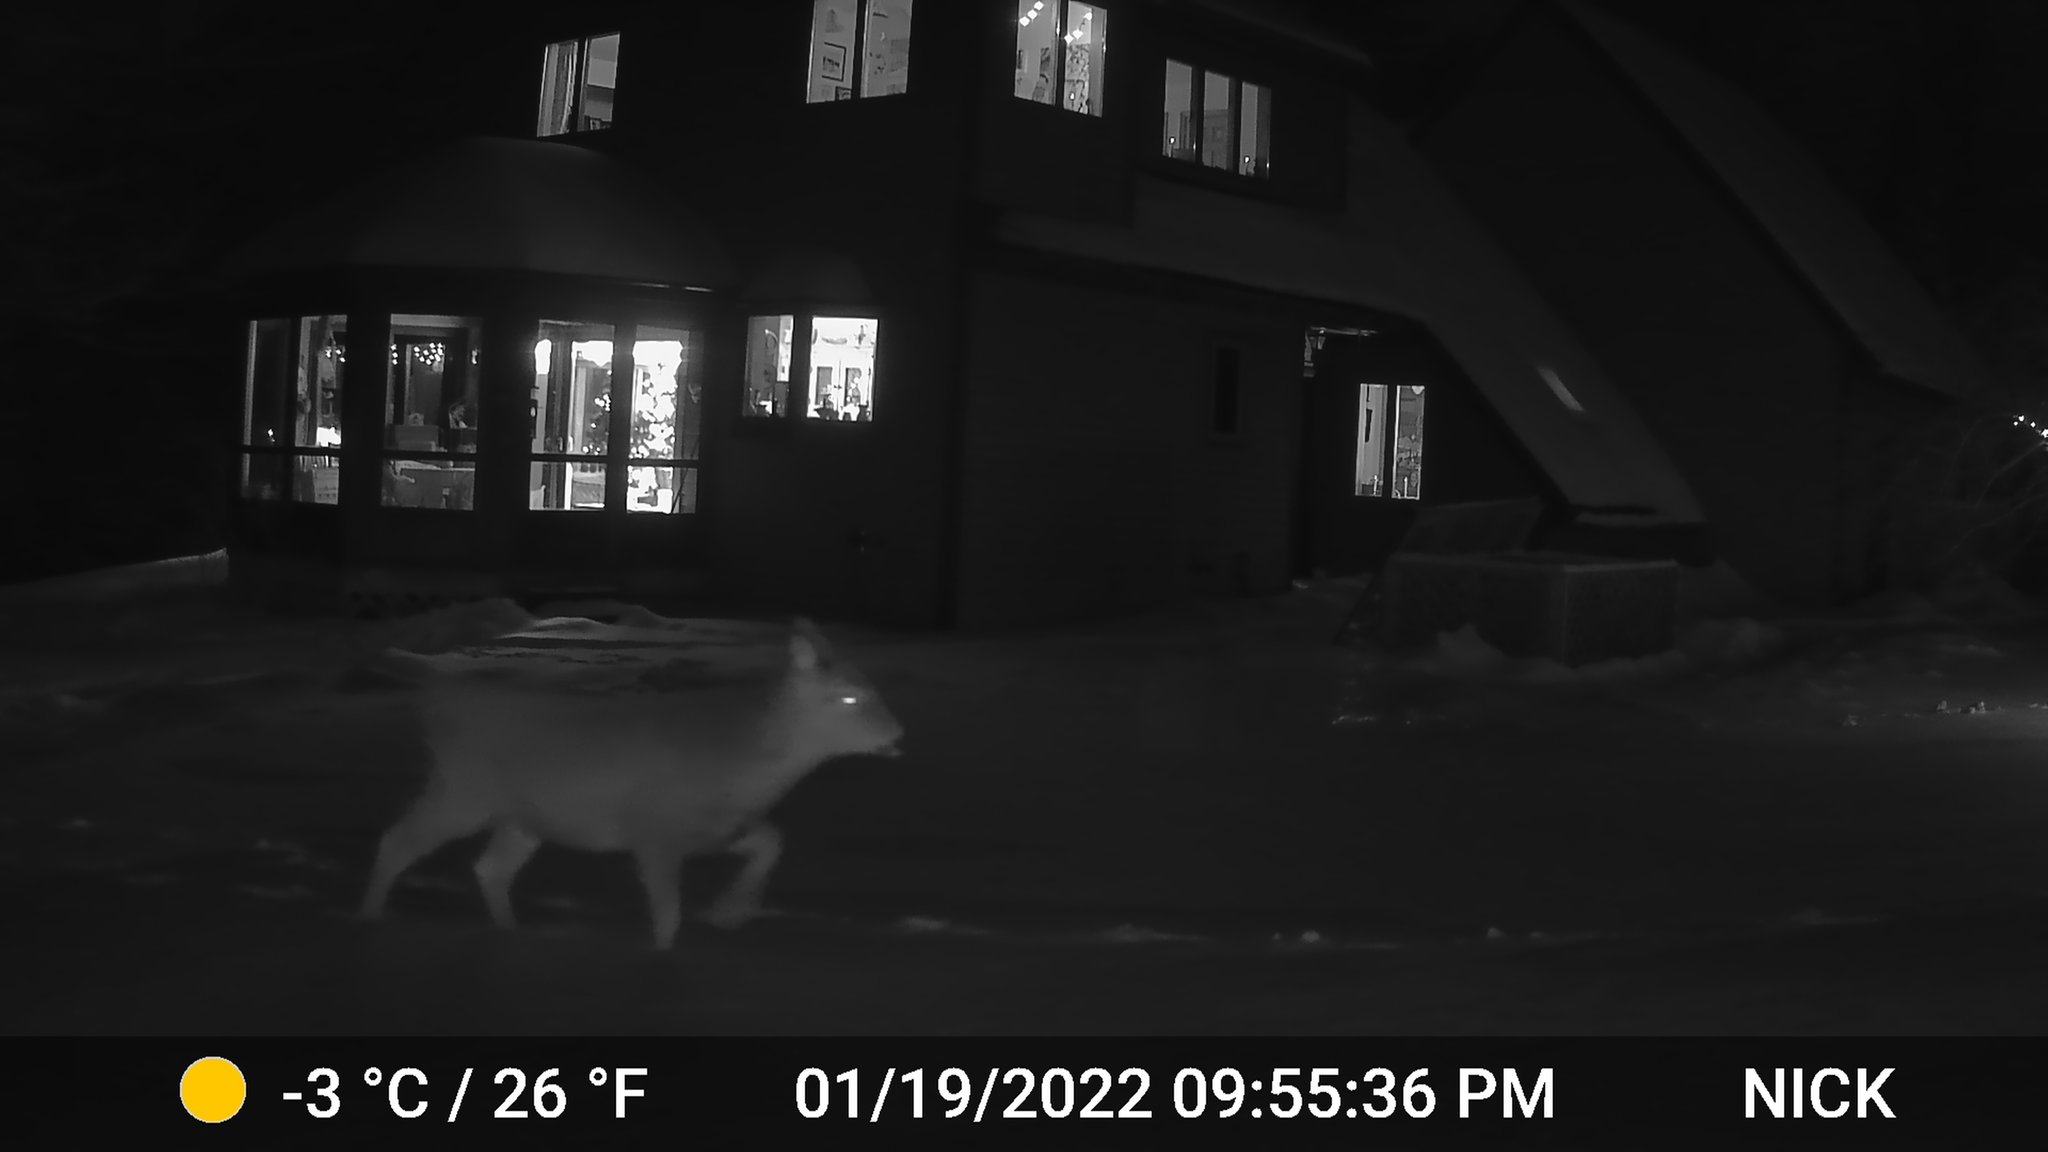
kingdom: Animalia
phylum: Chordata
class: Mammalia
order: Artiodactyla
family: Cervidae
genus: Odocoileus
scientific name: Odocoileus virginianus
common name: White-tailed deer
